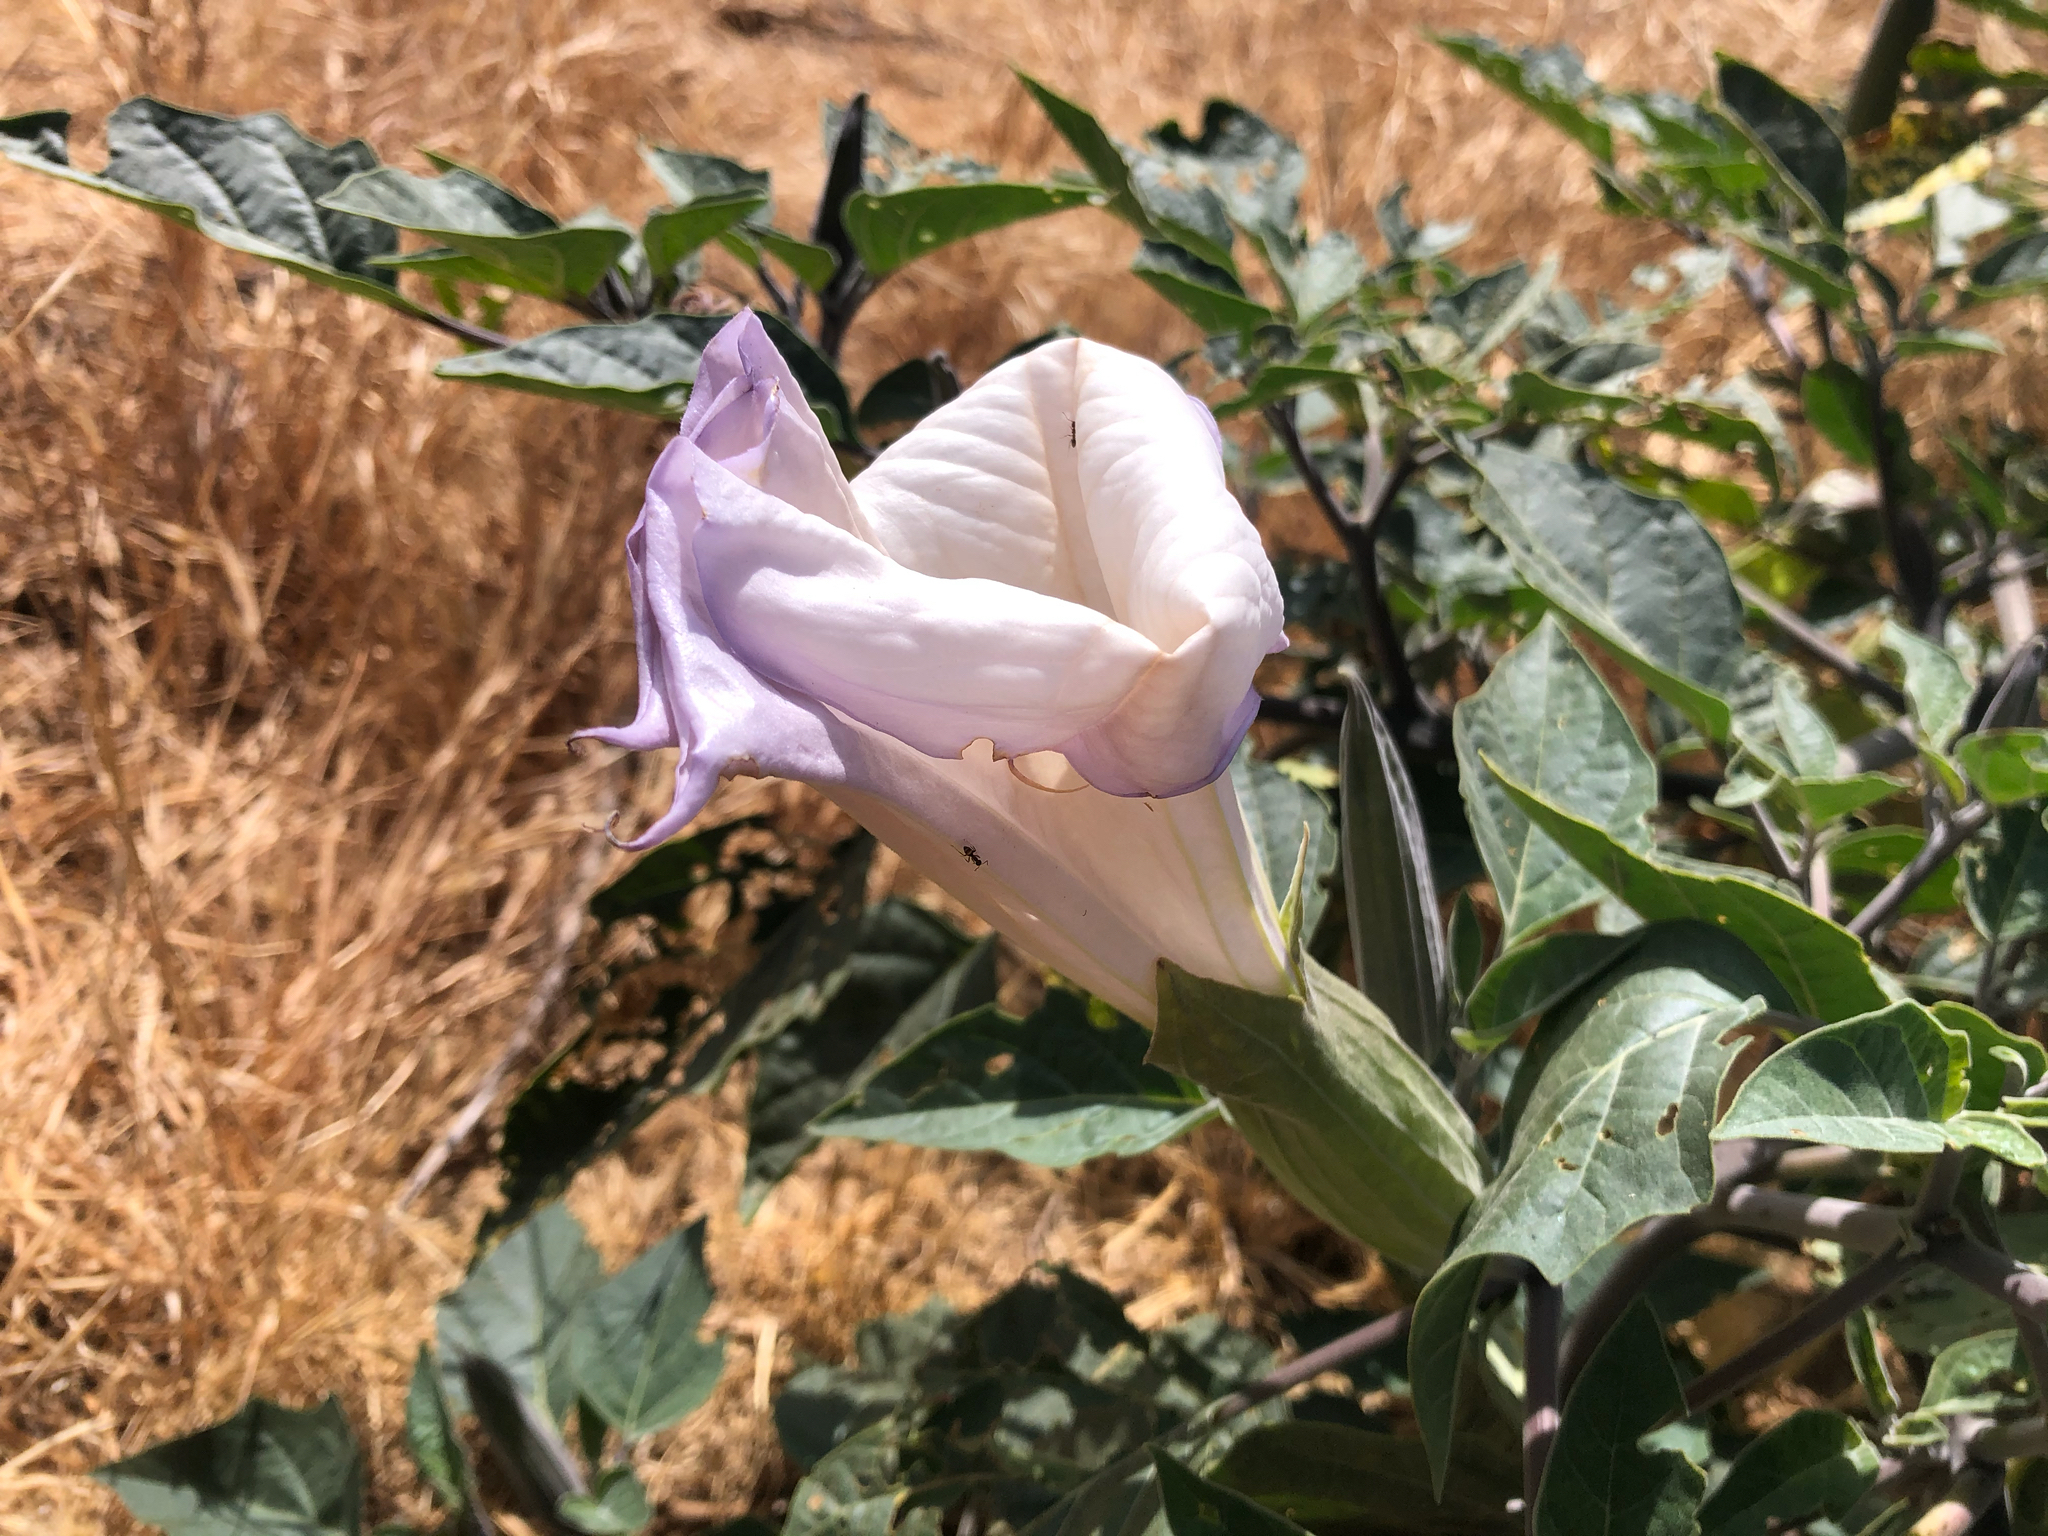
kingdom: Plantae
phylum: Tracheophyta
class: Magnoliopsida
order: Solanales
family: Solanaceae
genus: Datura
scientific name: Datura wrightii
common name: Sacred thorn-apple
